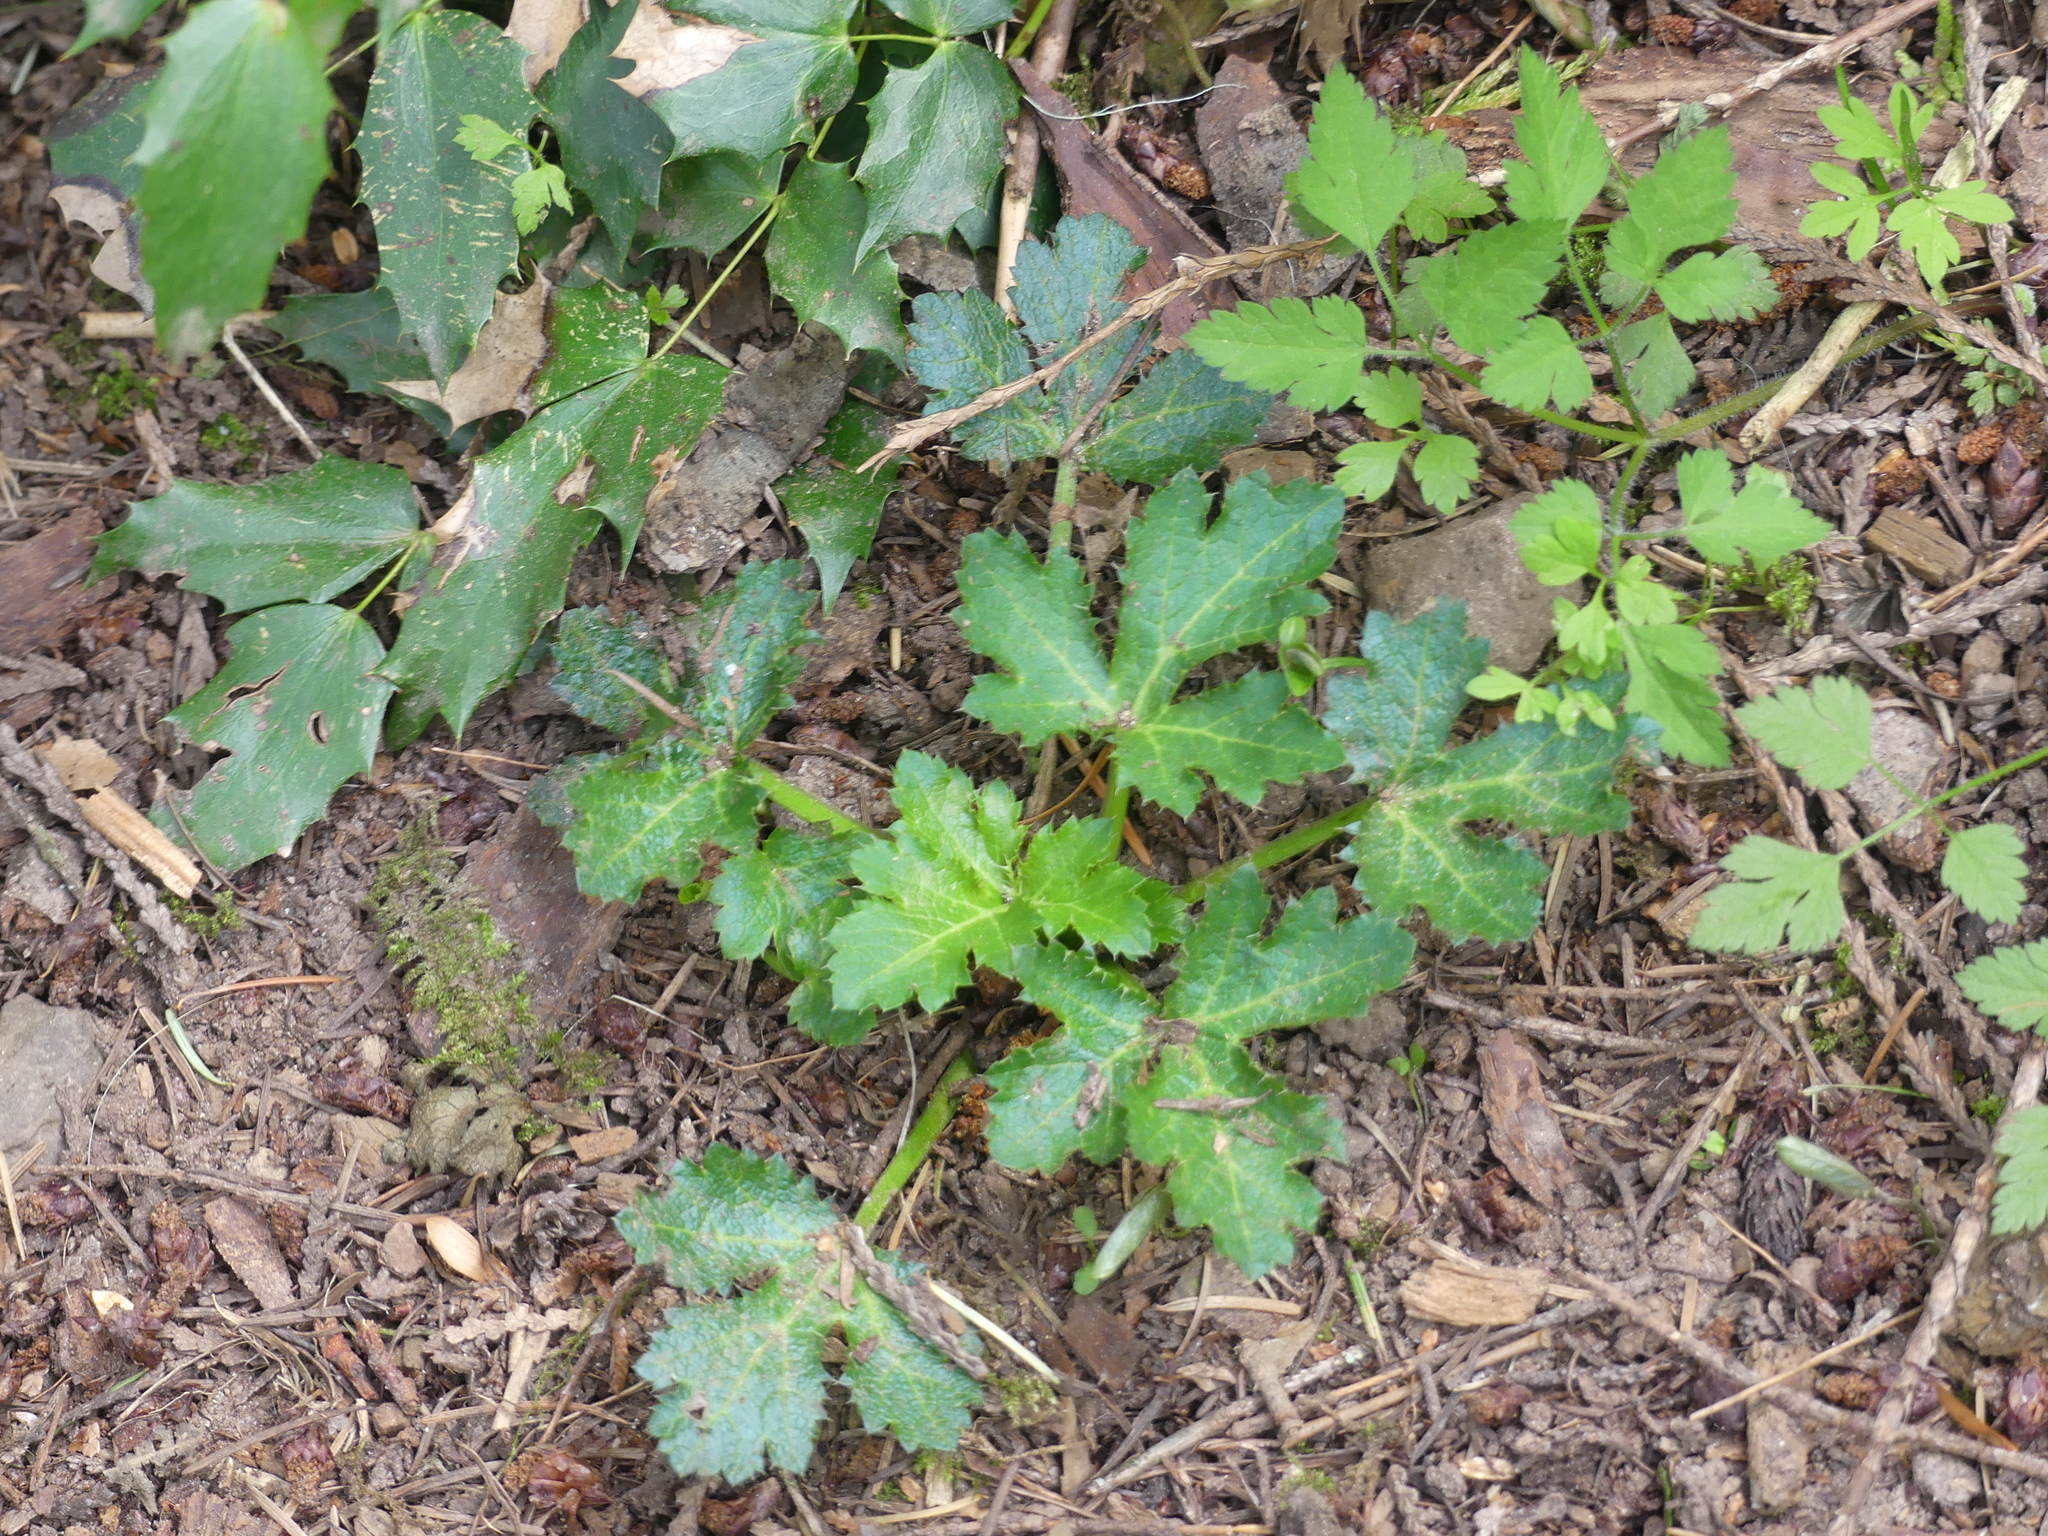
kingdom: Plantae
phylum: Tracheophyta
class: Magnoliopsida
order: Apiales
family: Apiaceae
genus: Sanicula
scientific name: Sanicula crassicaulis
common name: Western snakeroot
